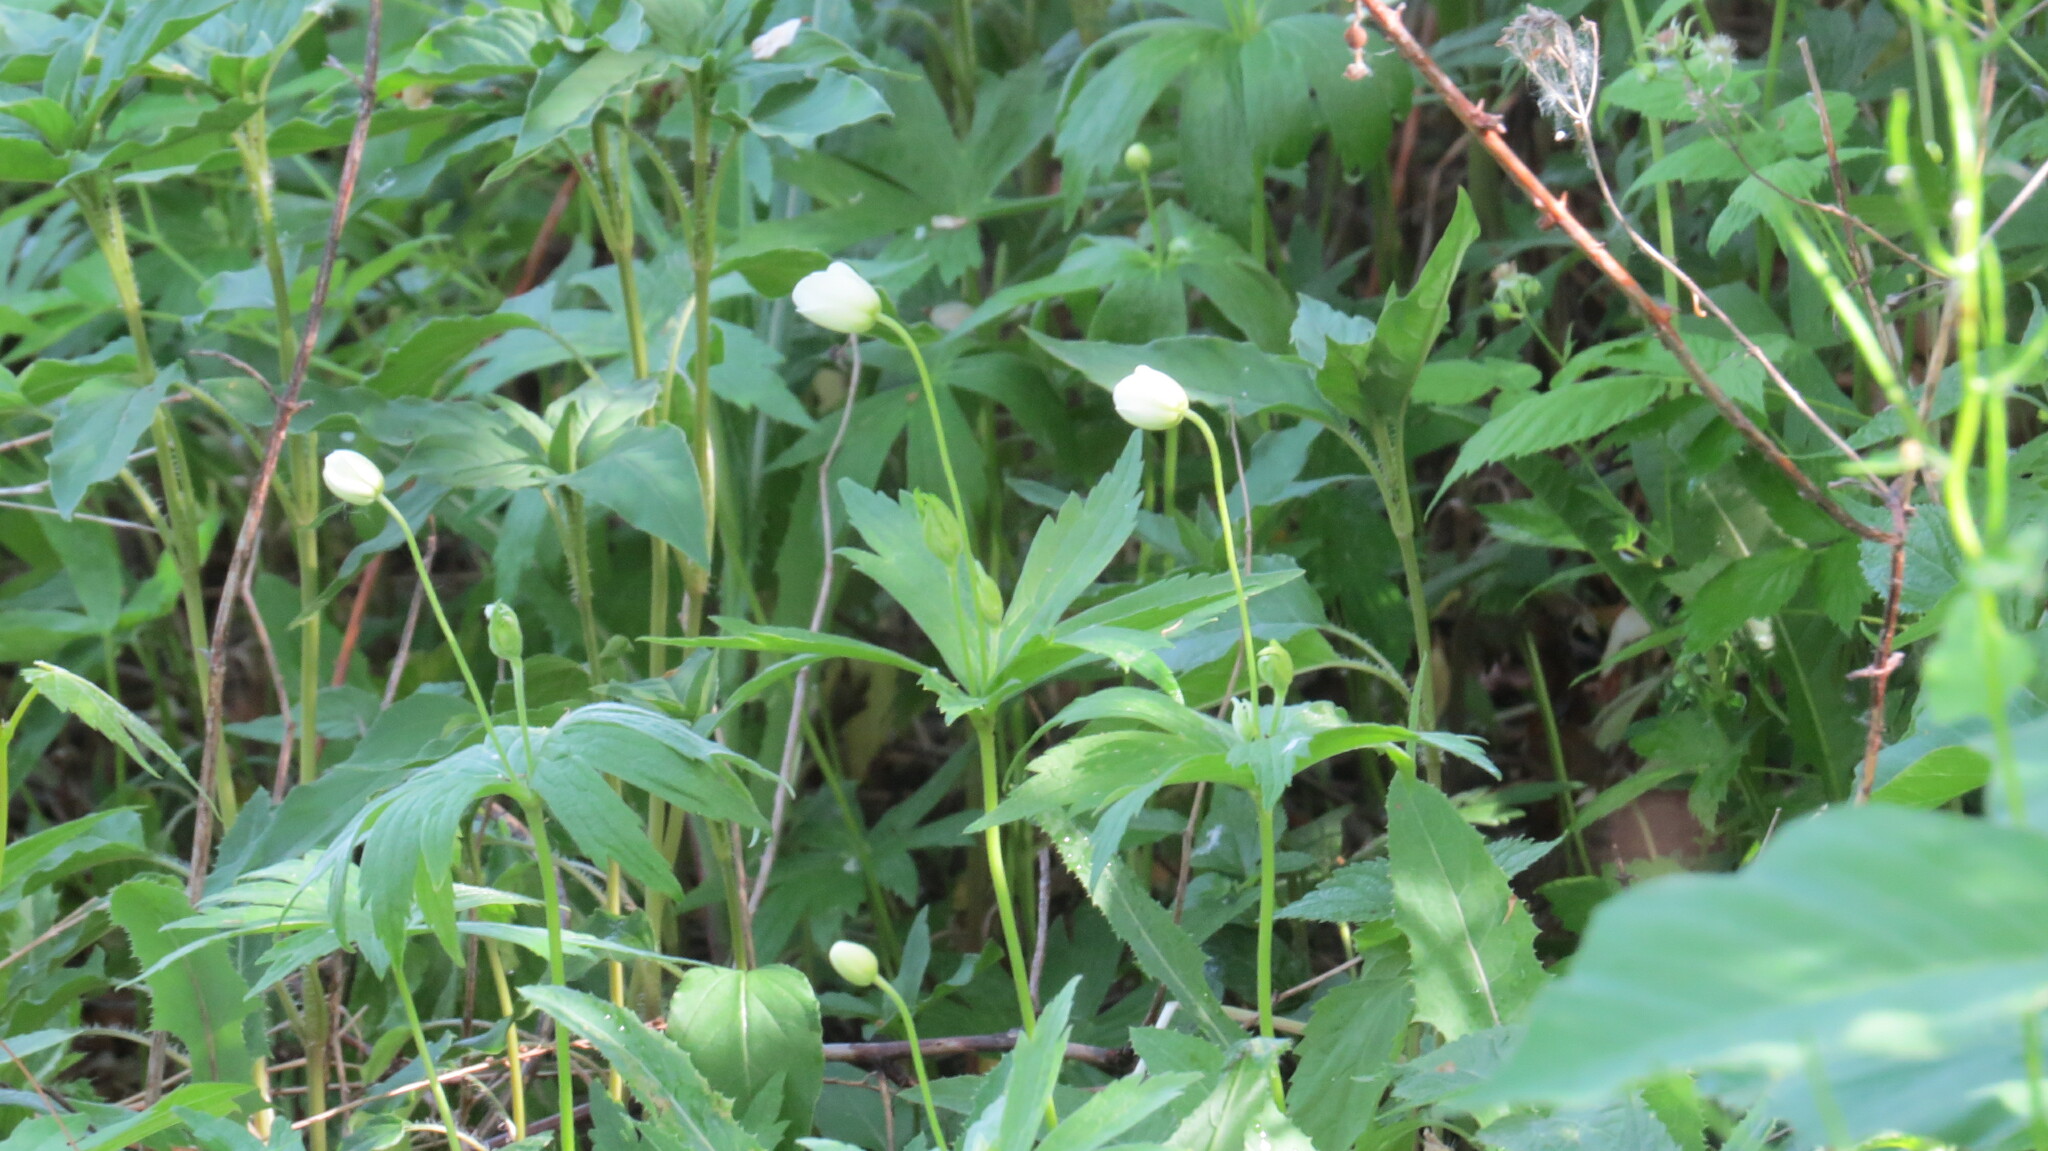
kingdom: Plantae
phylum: Tracheophyta
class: Magnoliopsida
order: Ranunculales
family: Ranunculaceae
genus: Anemonastrum
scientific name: Anemonastrum canadense
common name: Canada anemone
